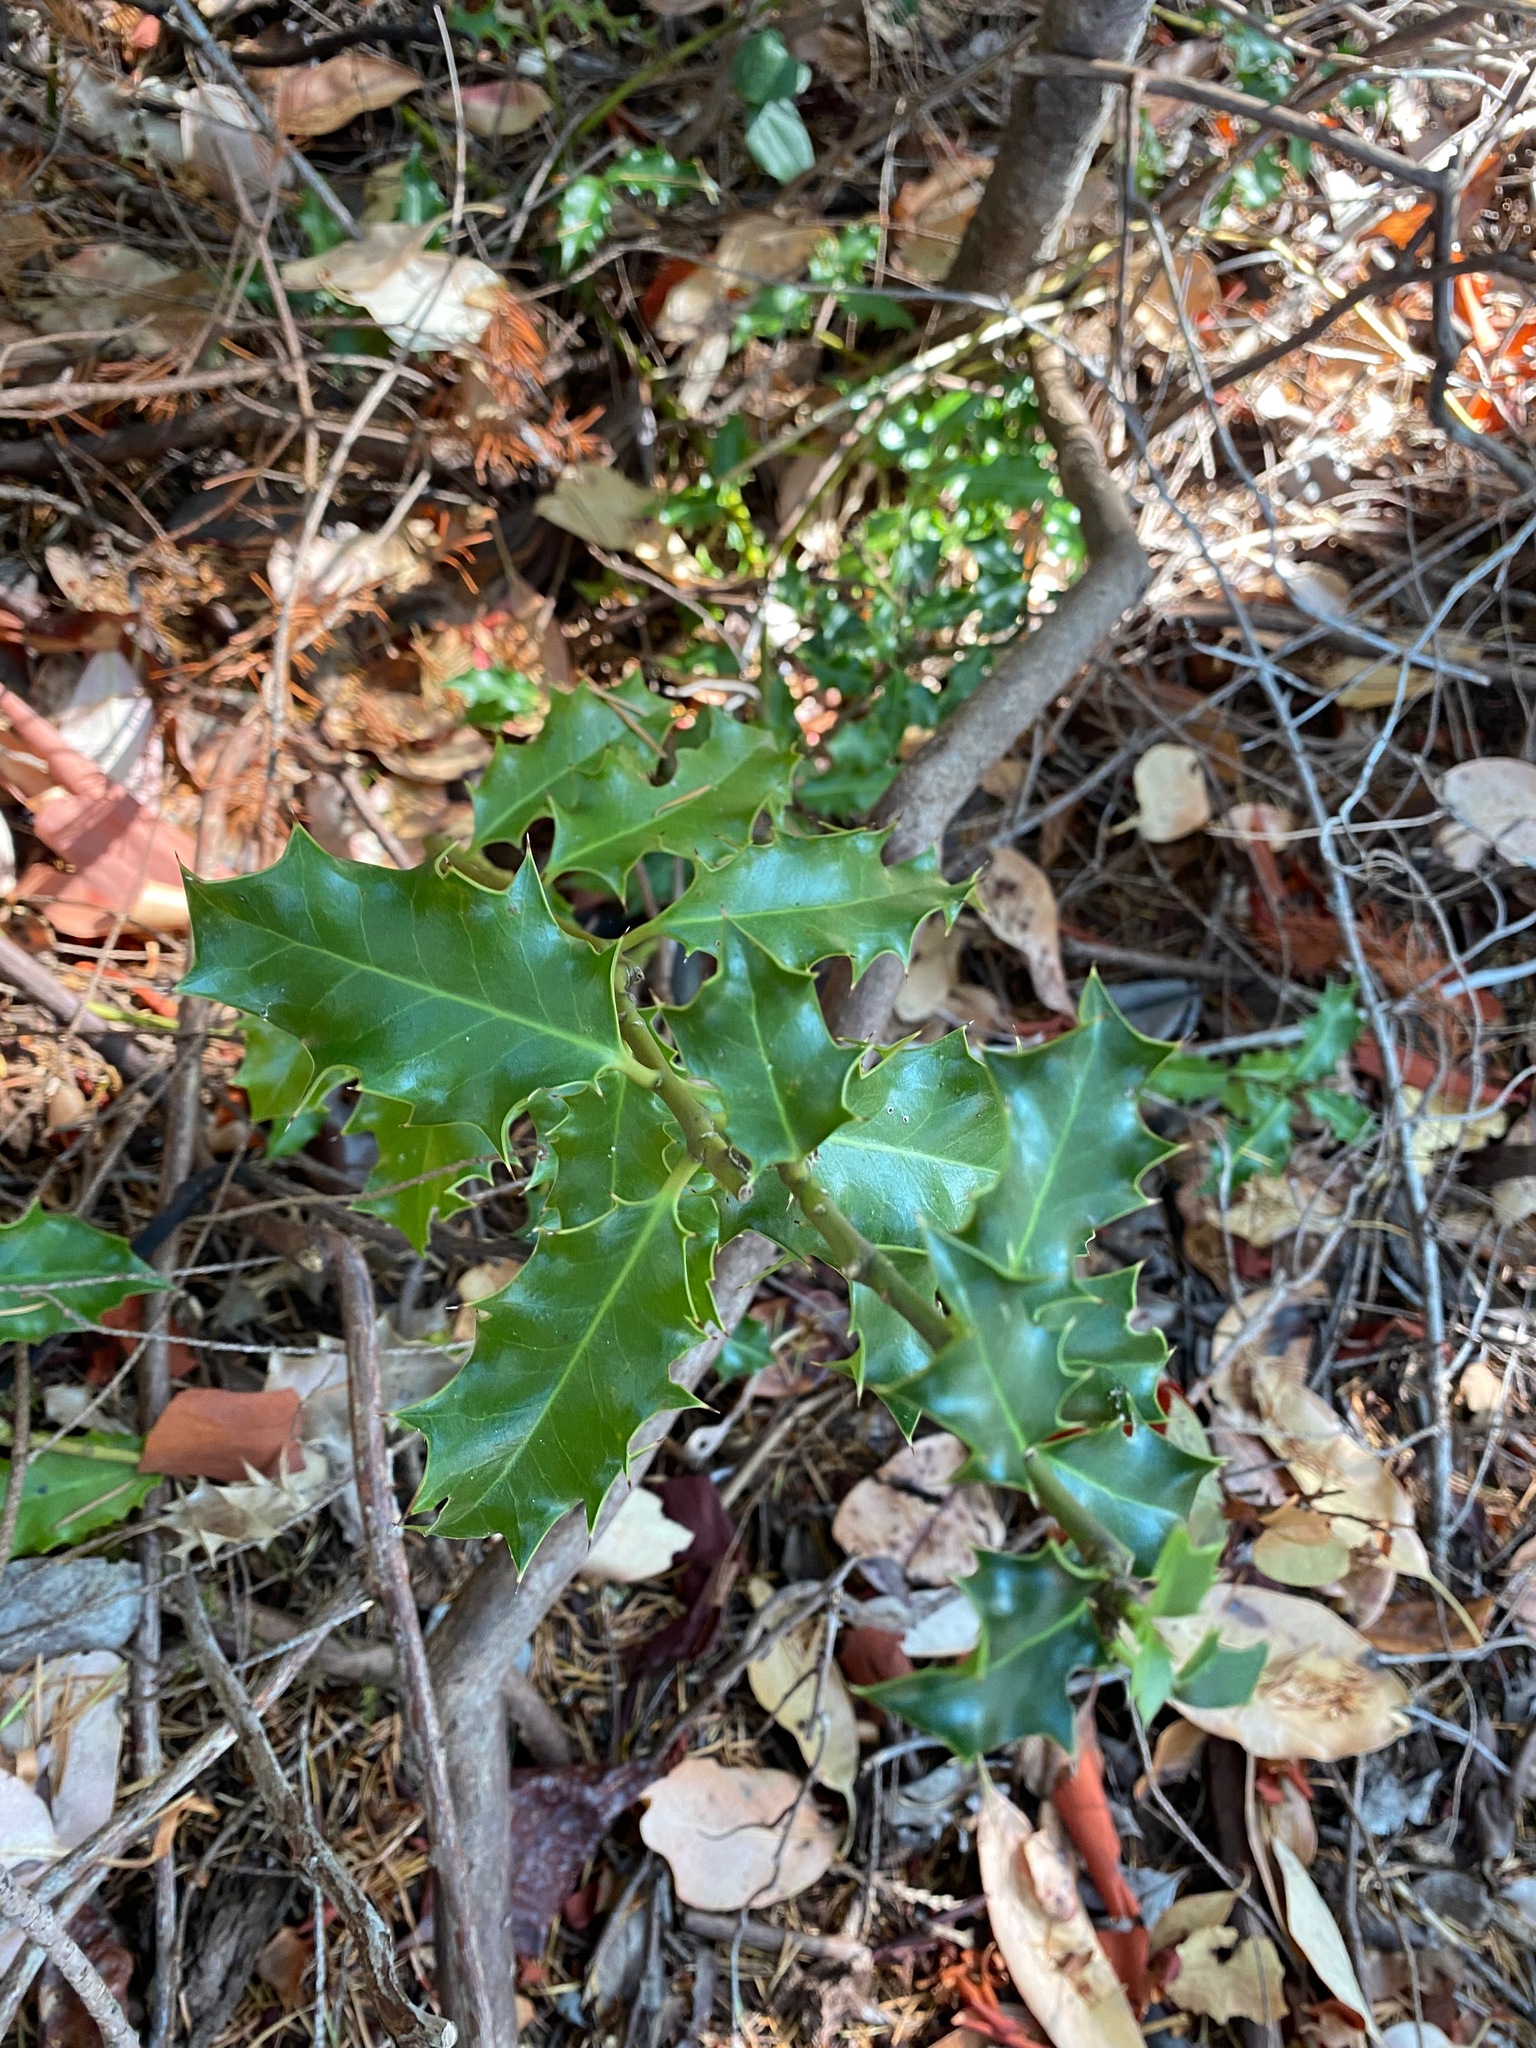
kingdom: Plantae
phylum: Tracheophyta
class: Magnoliopsida
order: Aquifoliales
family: Aquifoliaceae
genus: Ilex
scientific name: Ilex aquifolium
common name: English holly
